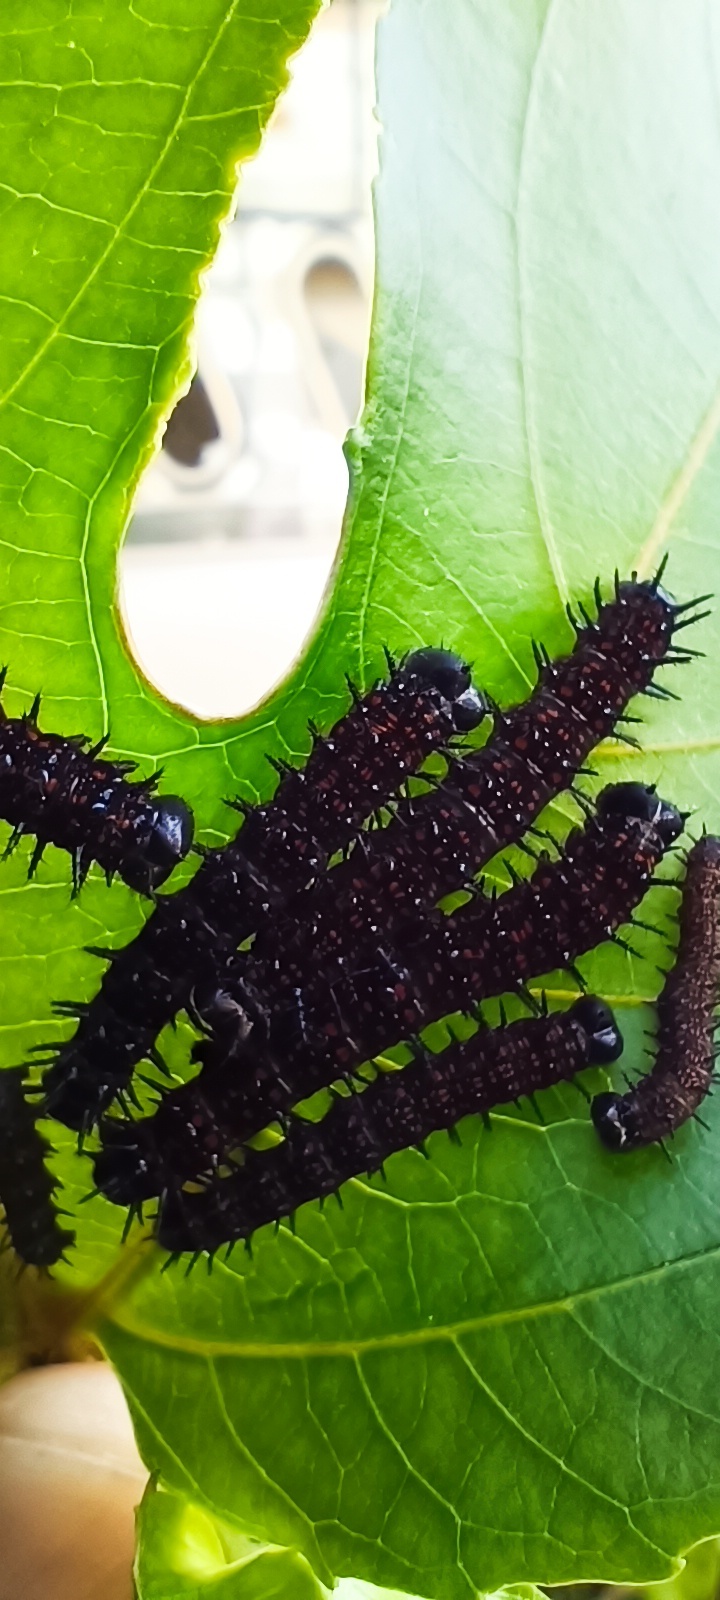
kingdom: Animalia
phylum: Arthropoda
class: Insecta
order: Lepidoptera
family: Nymphalidae
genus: Dione
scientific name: Dione juno
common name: Juno silverspot
